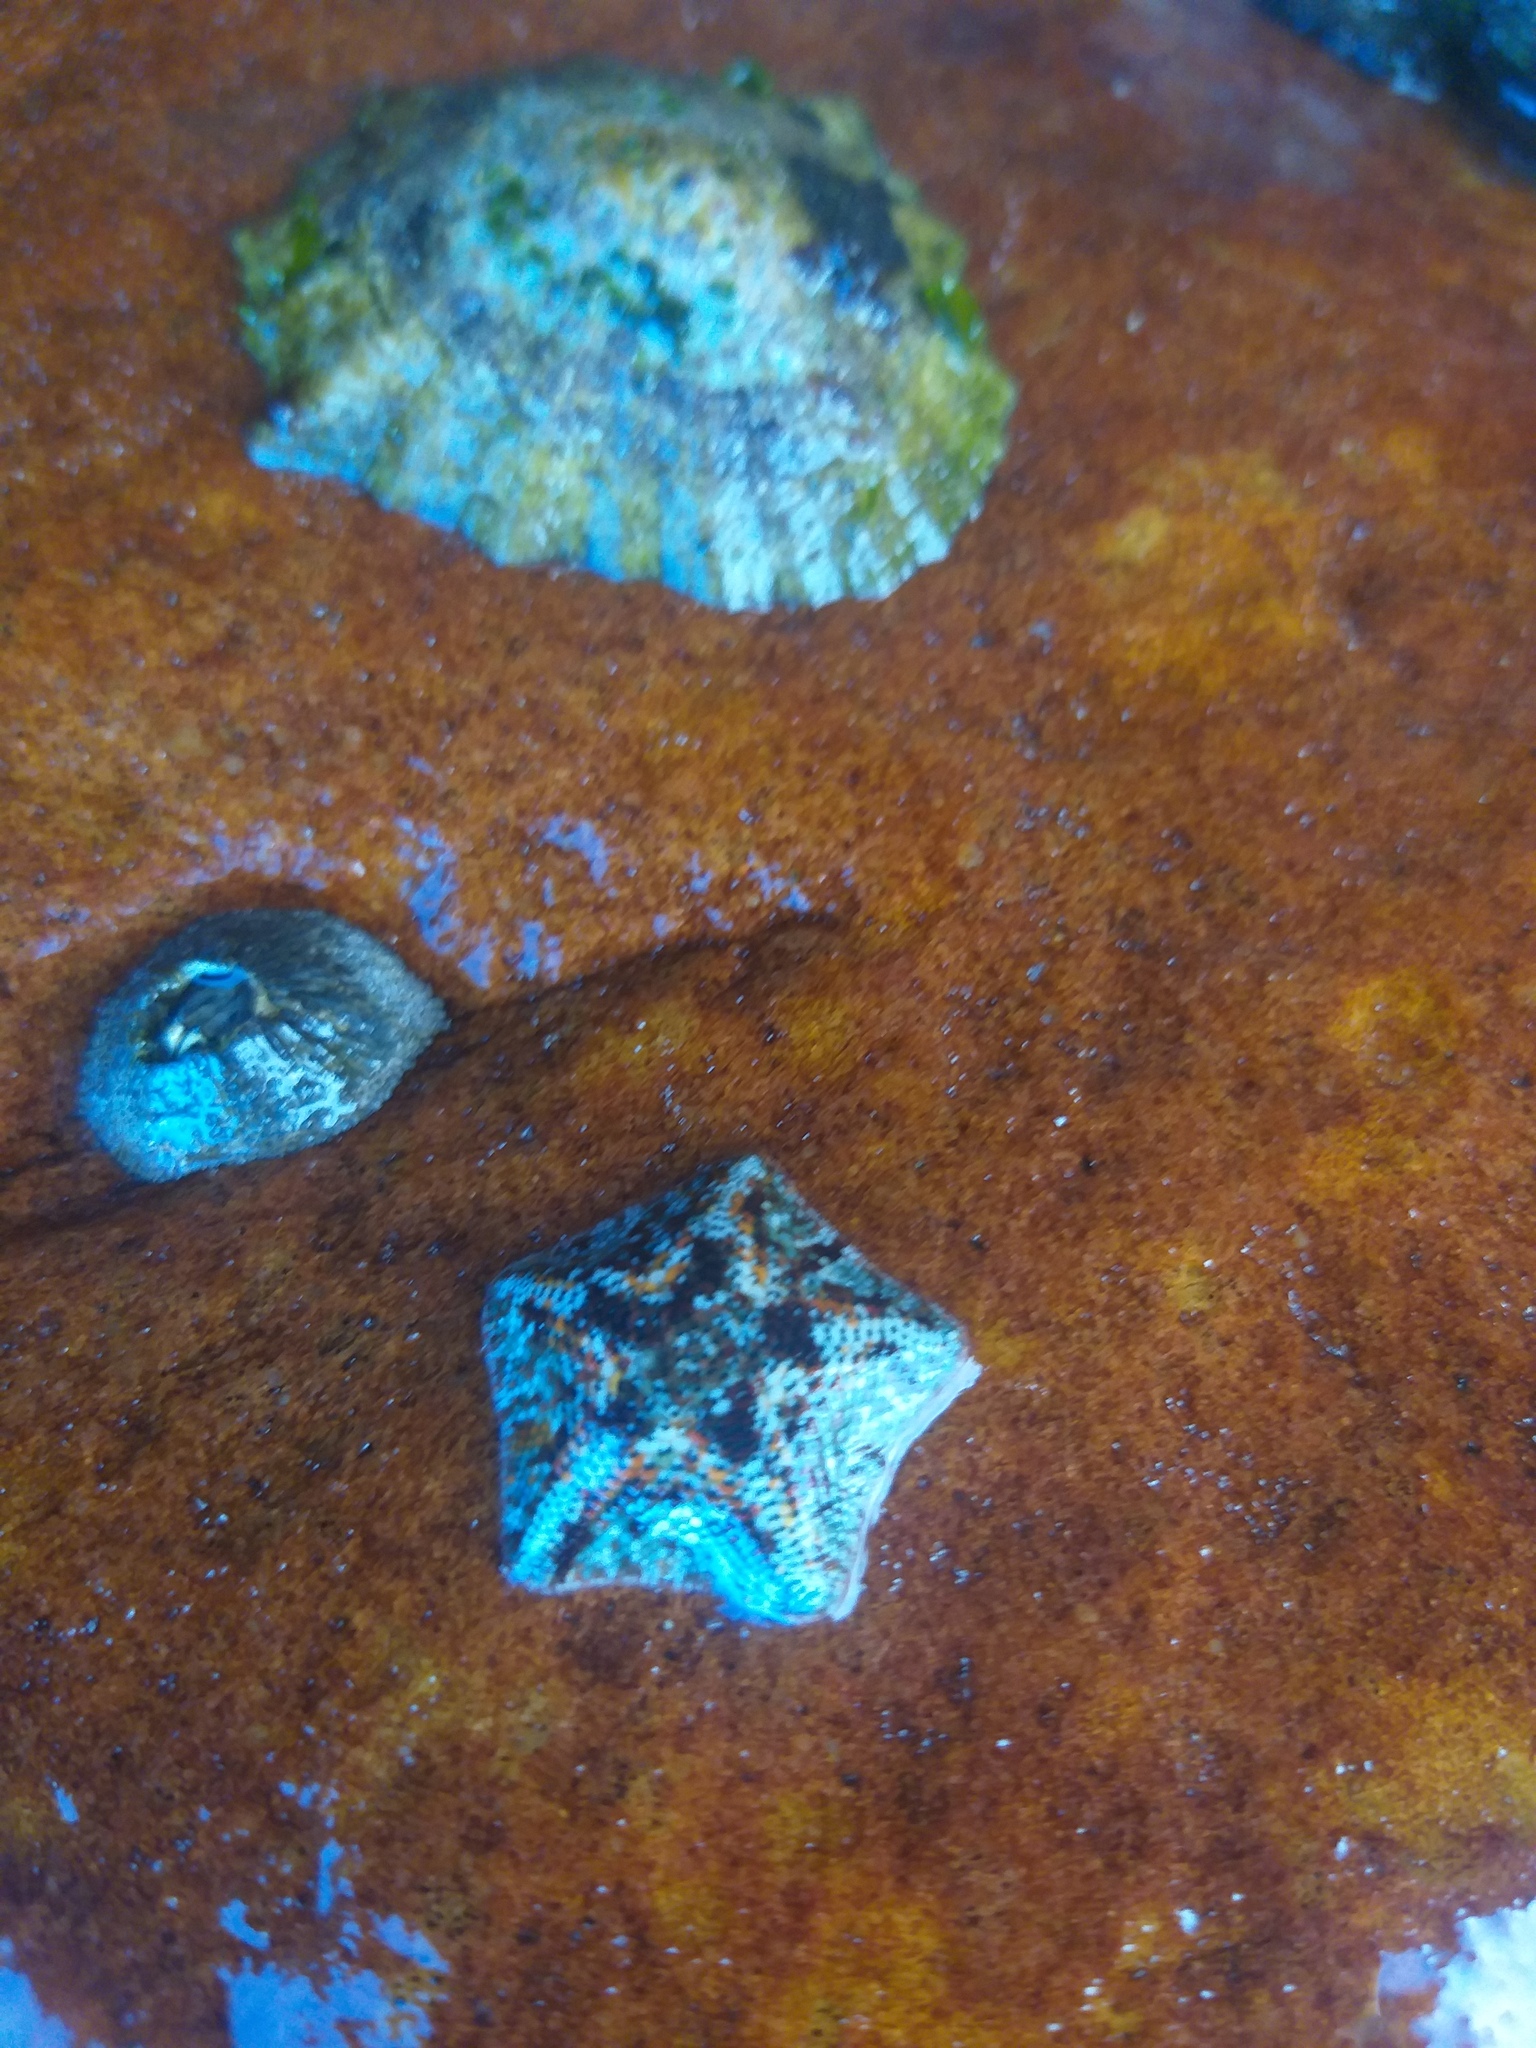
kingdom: Animalia
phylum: Echinodermata
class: Asteroidea
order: Valvatida
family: Asterinidae
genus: Parvulastra
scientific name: Parvulastra exigua
